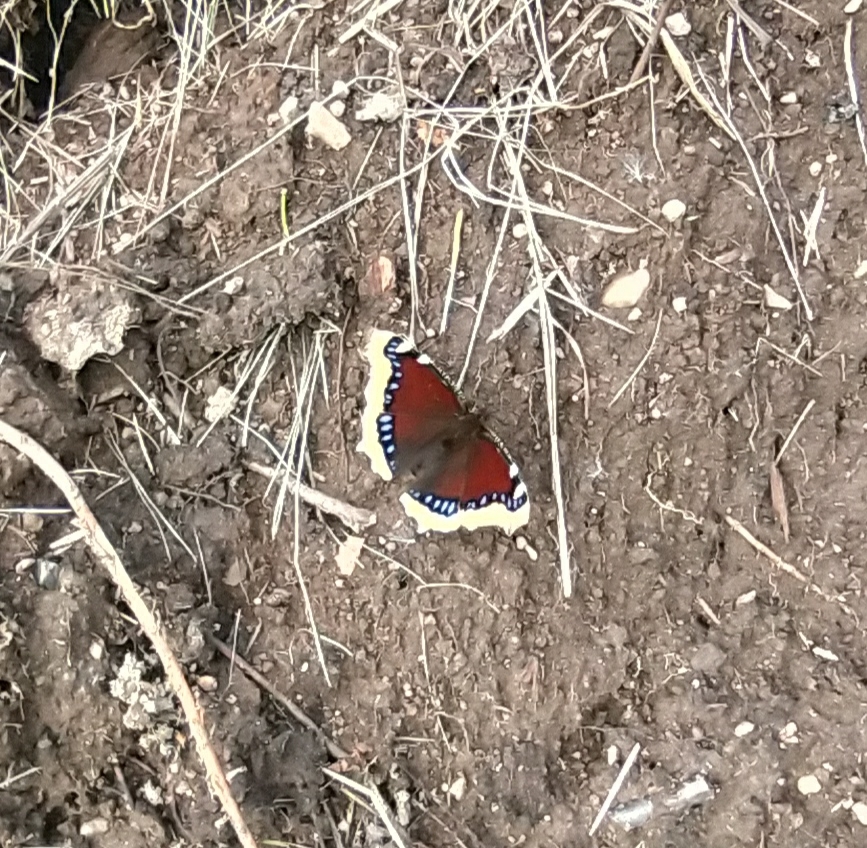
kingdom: Animalia
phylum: Arthropoda
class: Insecta
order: Lepidoptera
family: Nymphalidae
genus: Nymphalis
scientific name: Nymphalis antiopa
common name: Camberwell beauty
